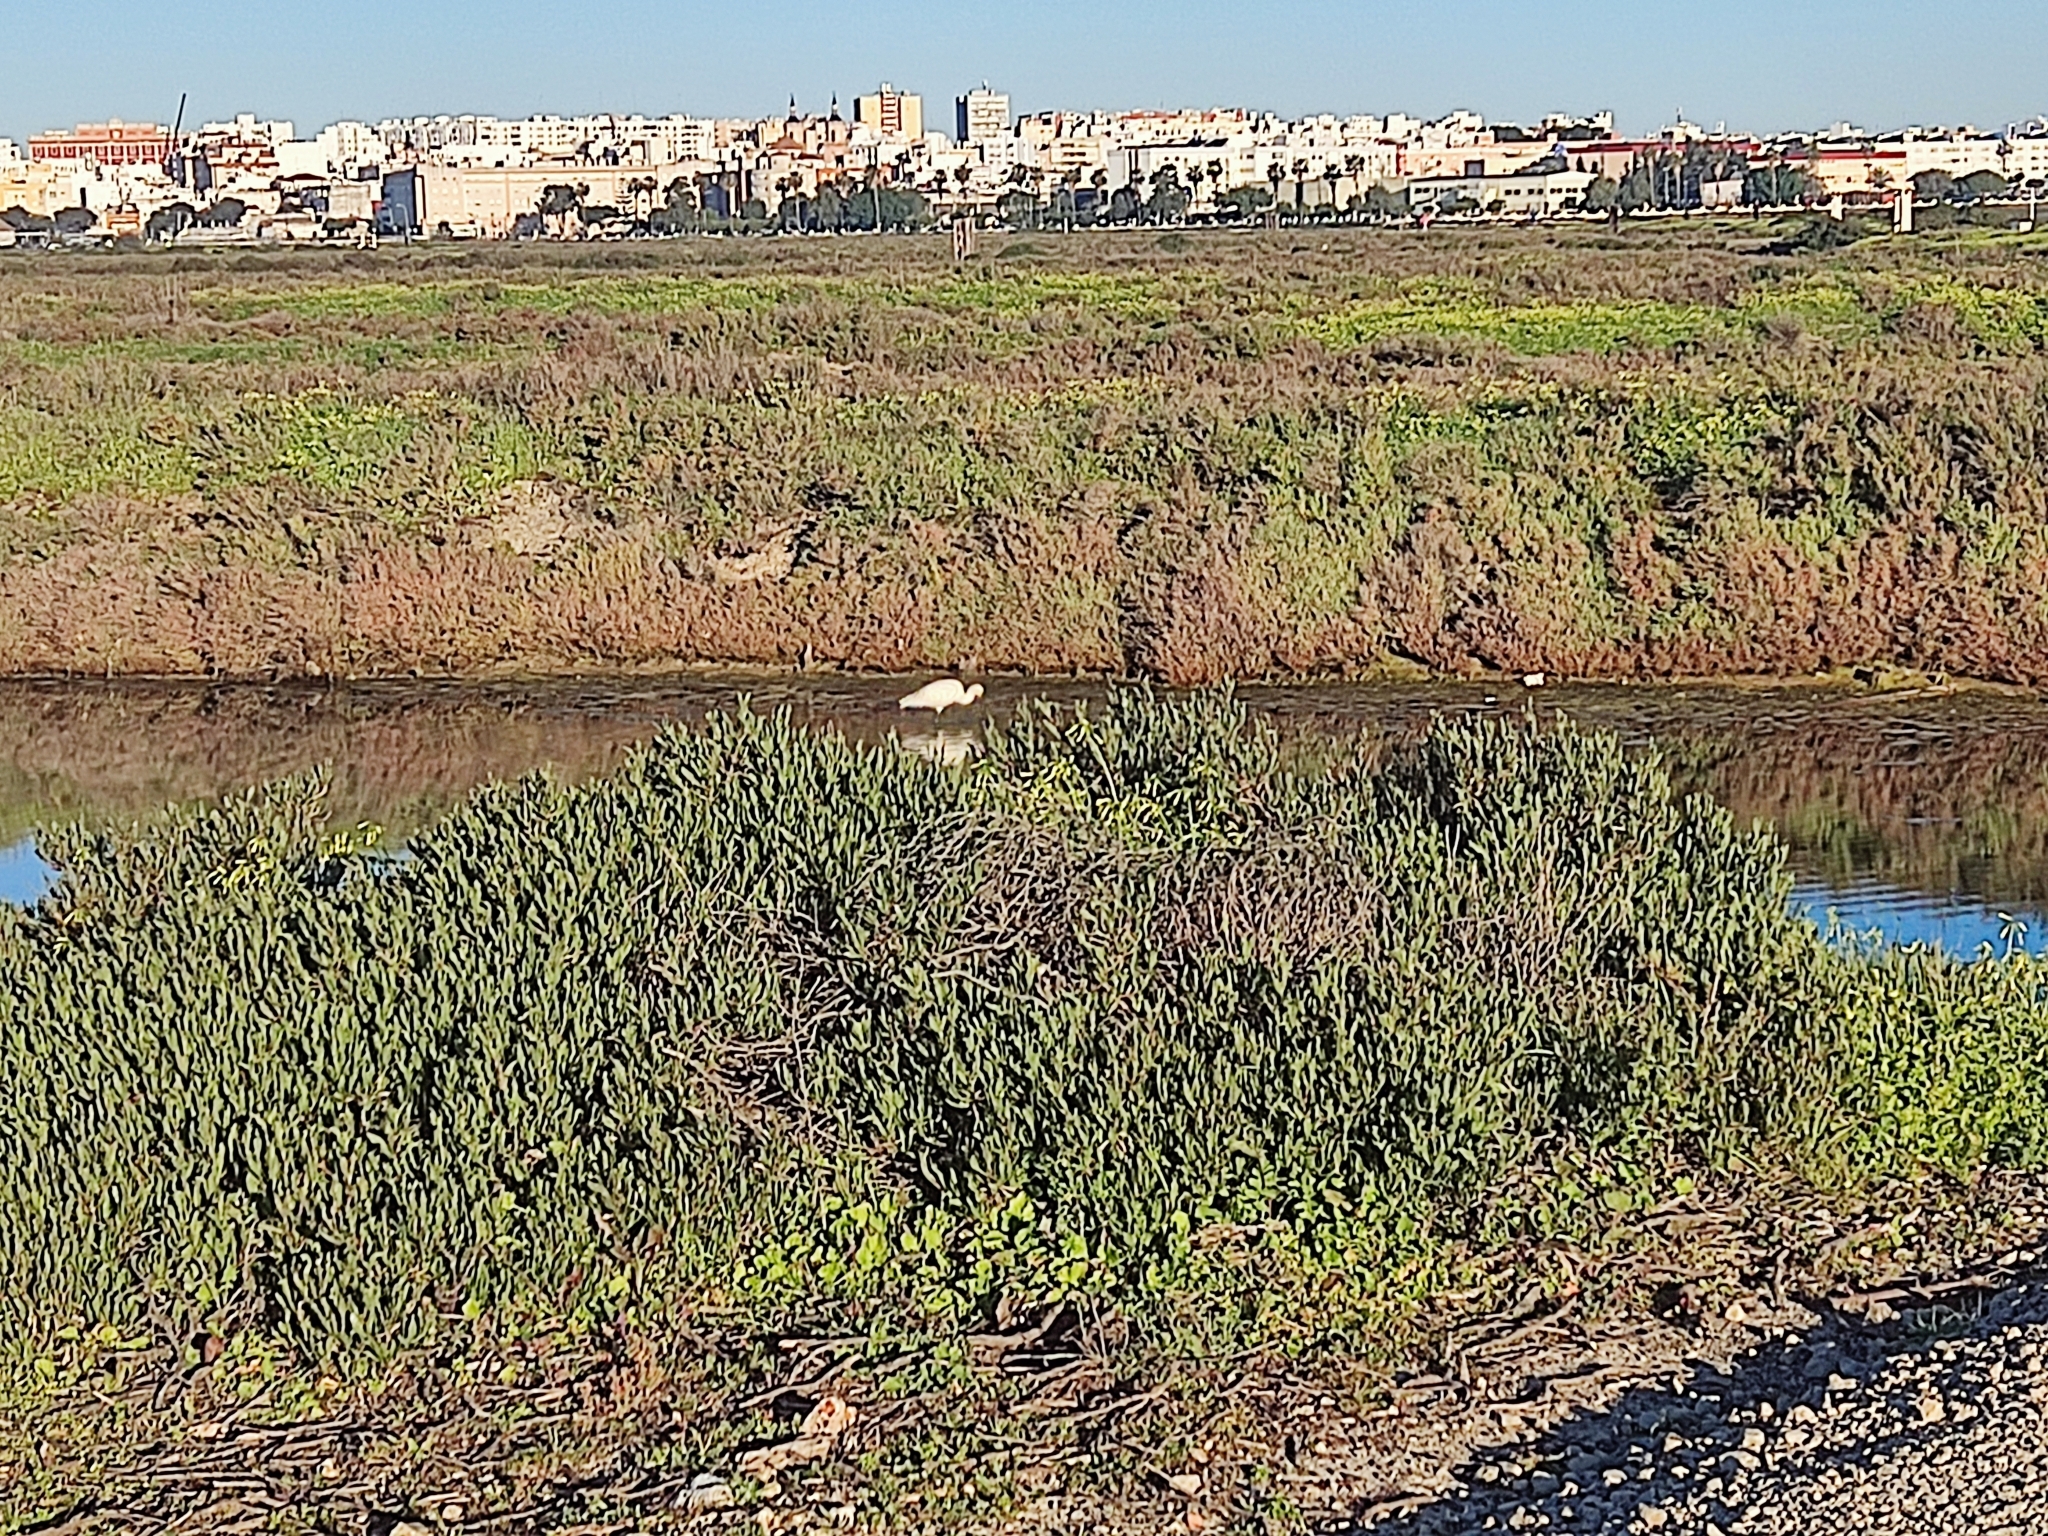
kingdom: Animalia
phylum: Chordata
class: Aves
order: Pelecaniformes
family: Threskiornithidae
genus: Platalea
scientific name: Platalea leucorodia
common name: Eurasian spoonbill
